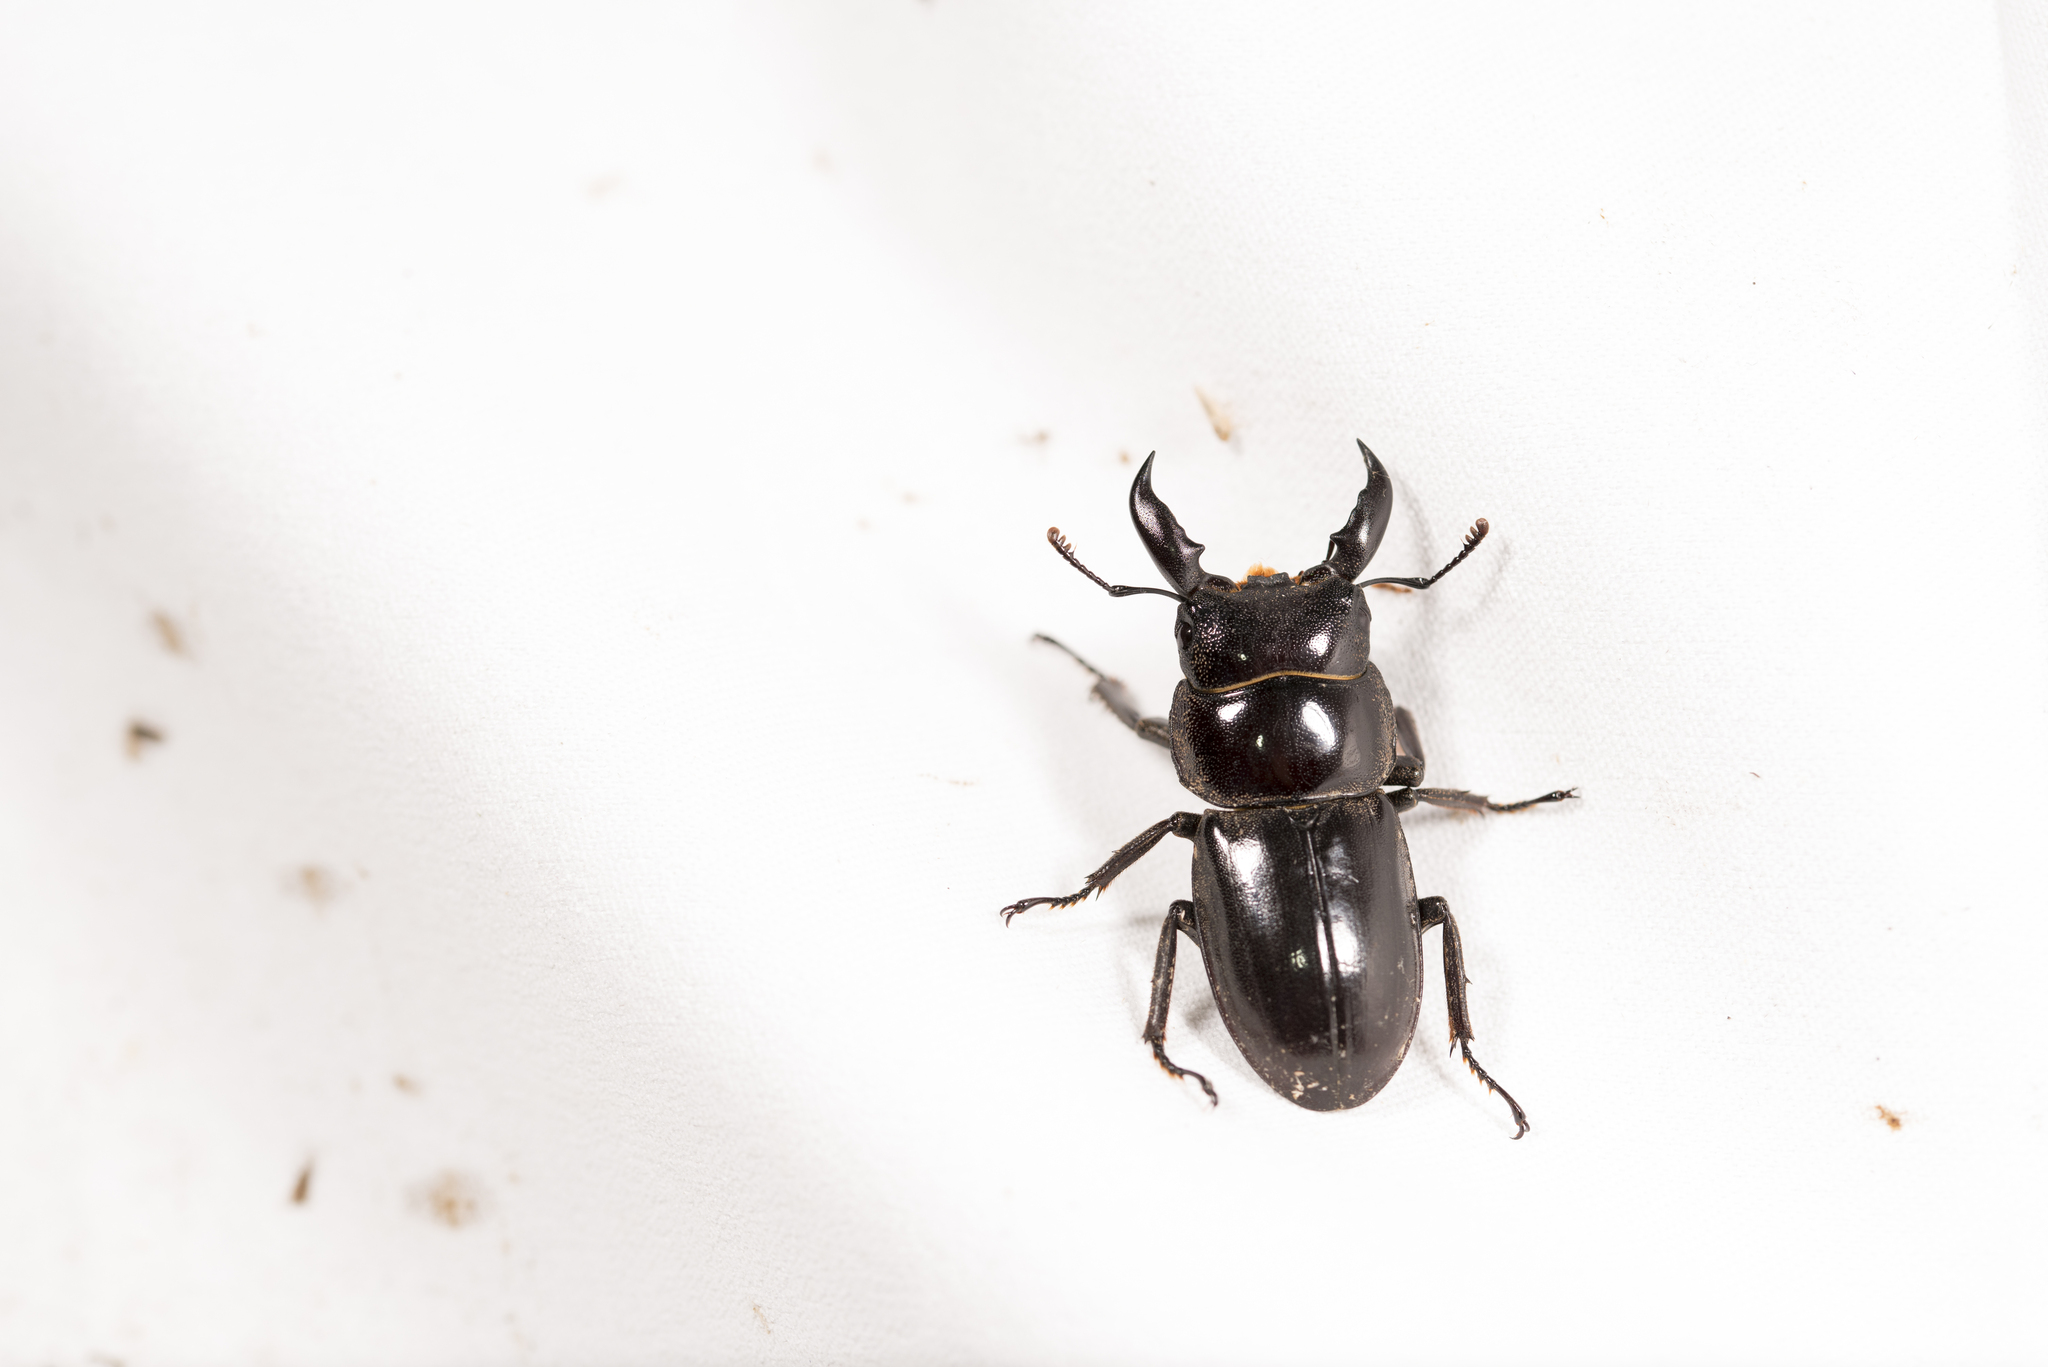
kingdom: Animalia
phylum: Arthropoda
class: Insecta
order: Coleoptera
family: Lucanidae
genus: Serrognathus
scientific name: Serrognathus titanus
